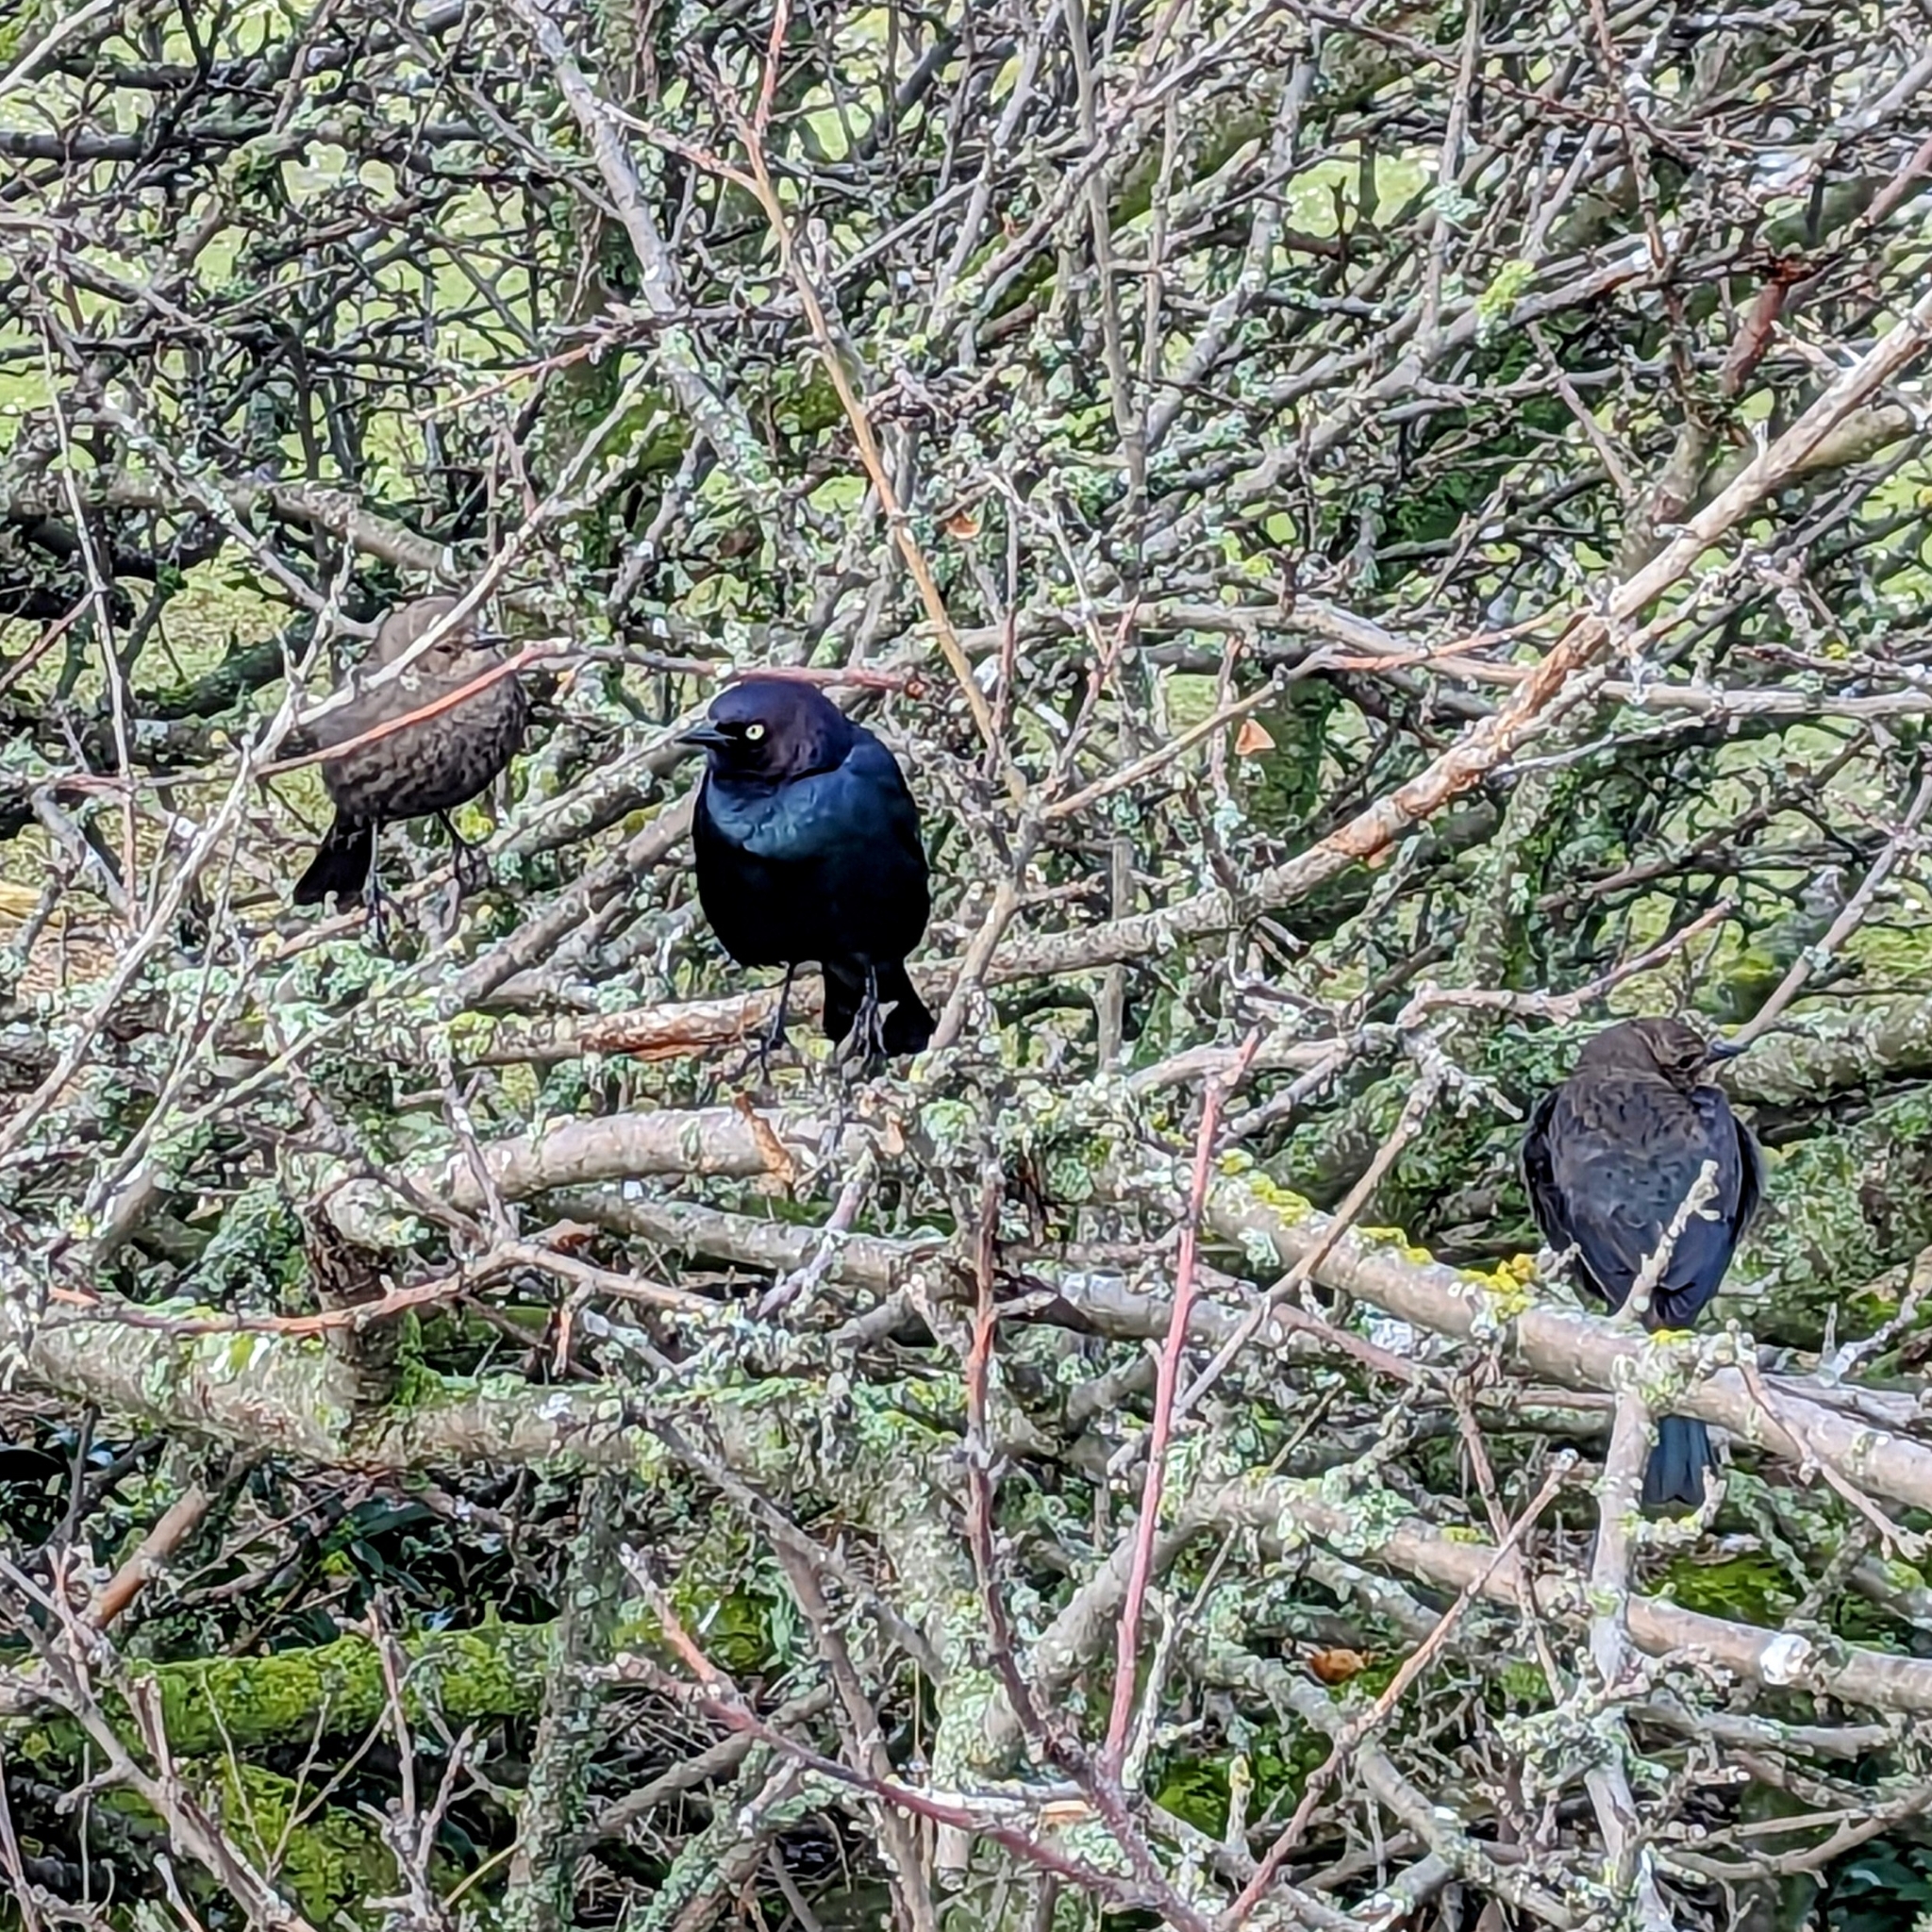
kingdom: Animalia
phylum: Chordata
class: Aves
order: Passeriformes
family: Icteridae
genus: Euphagus
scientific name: Euphagus cyanocephalus
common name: Brewer's blackbird
